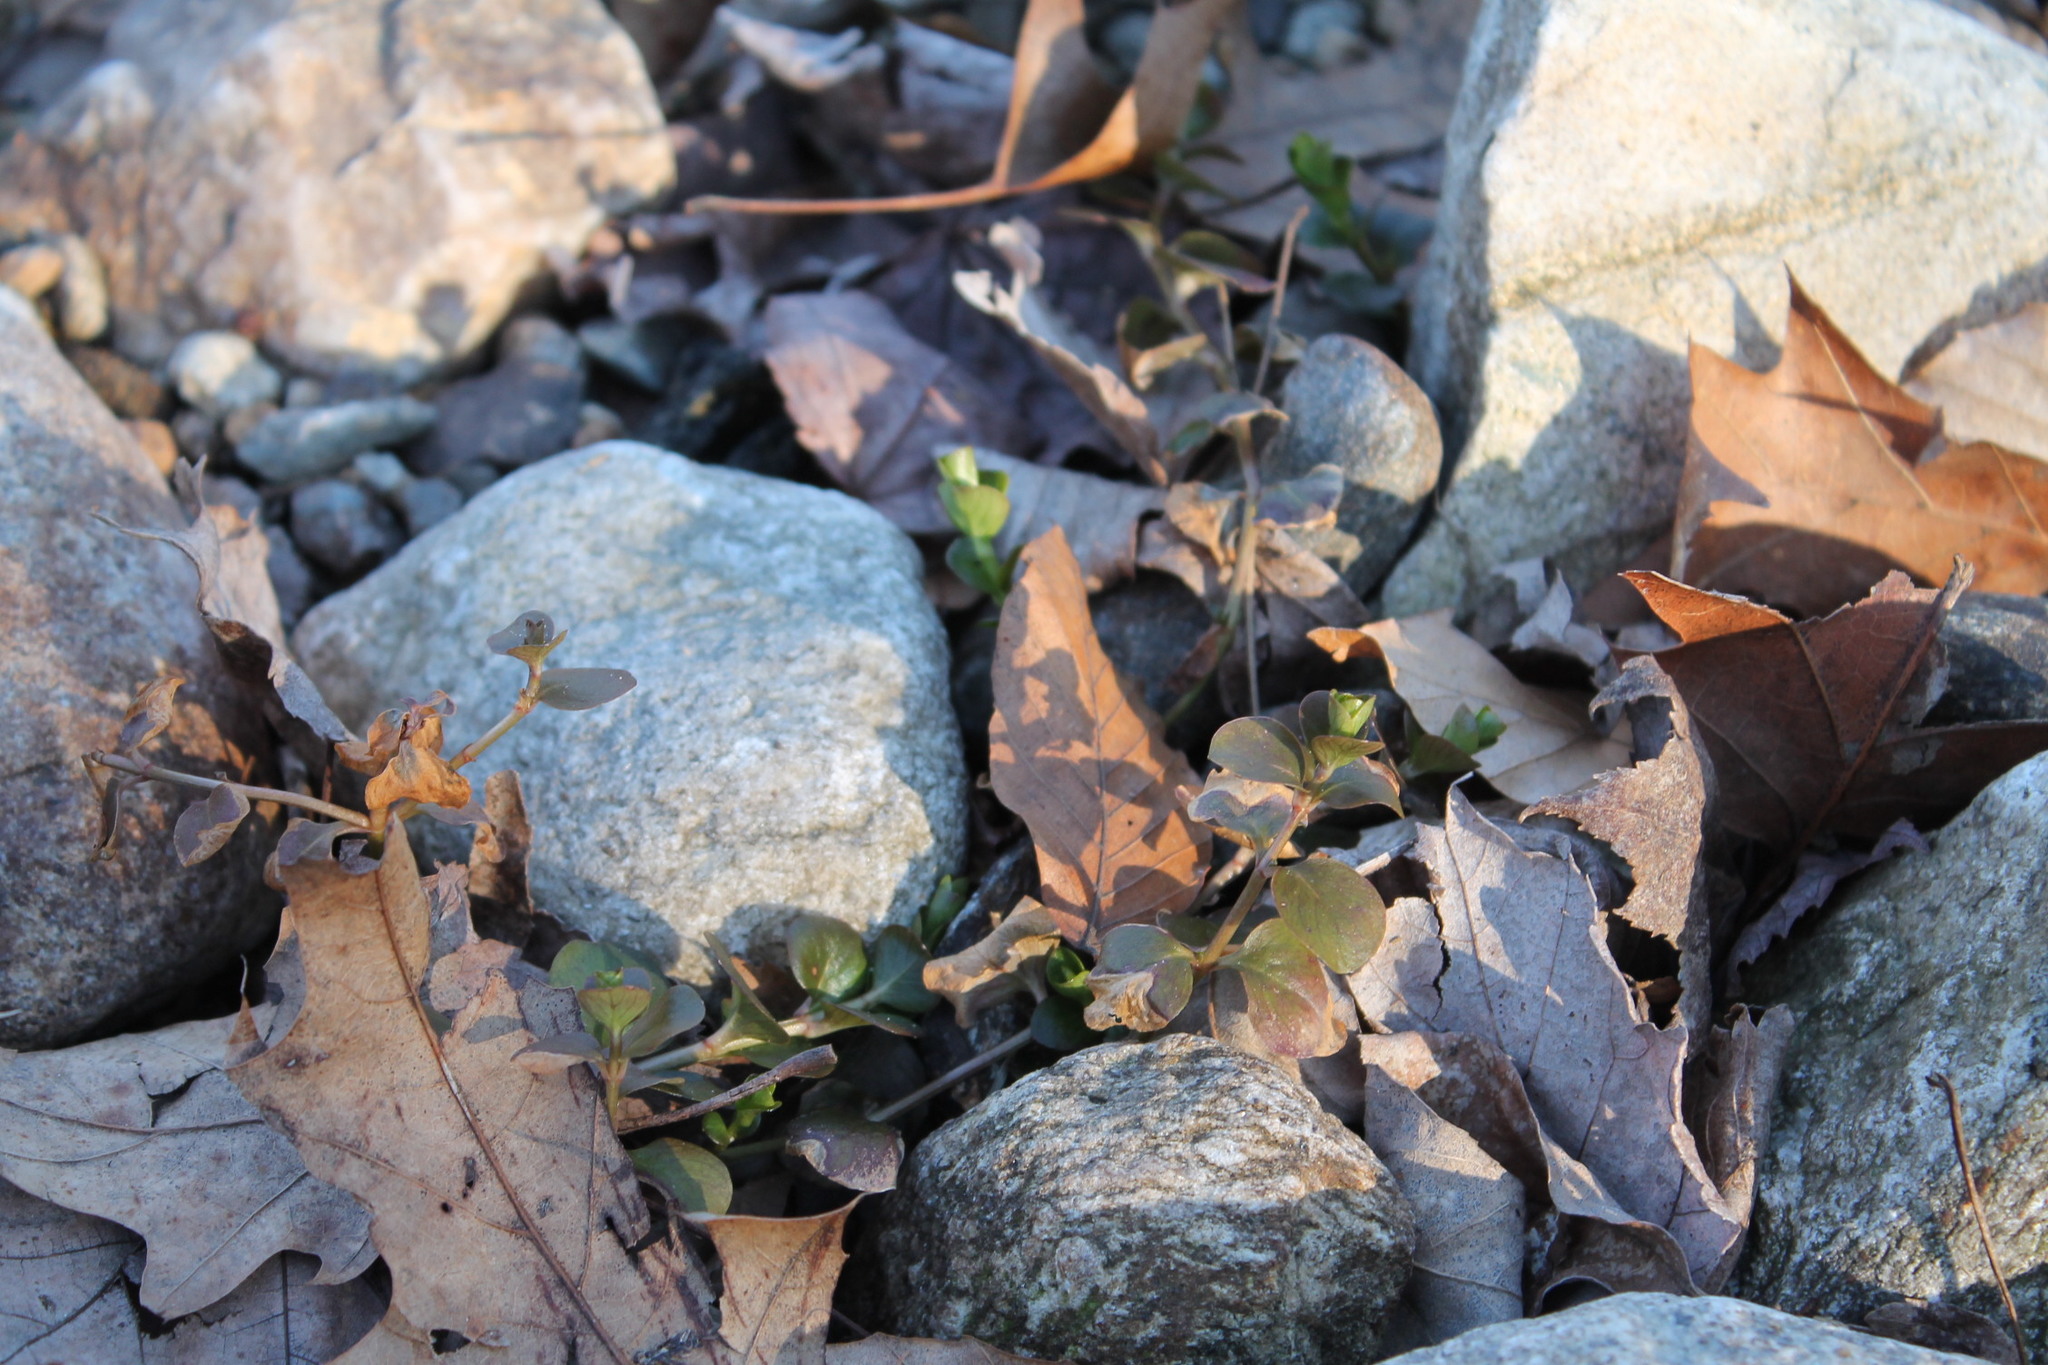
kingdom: Plantae
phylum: Tracheophyta
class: Magnoliopsida
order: Ericales
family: Primulaceae
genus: Lysimachia
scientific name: Lysimachia nummularia
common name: Moneywort
